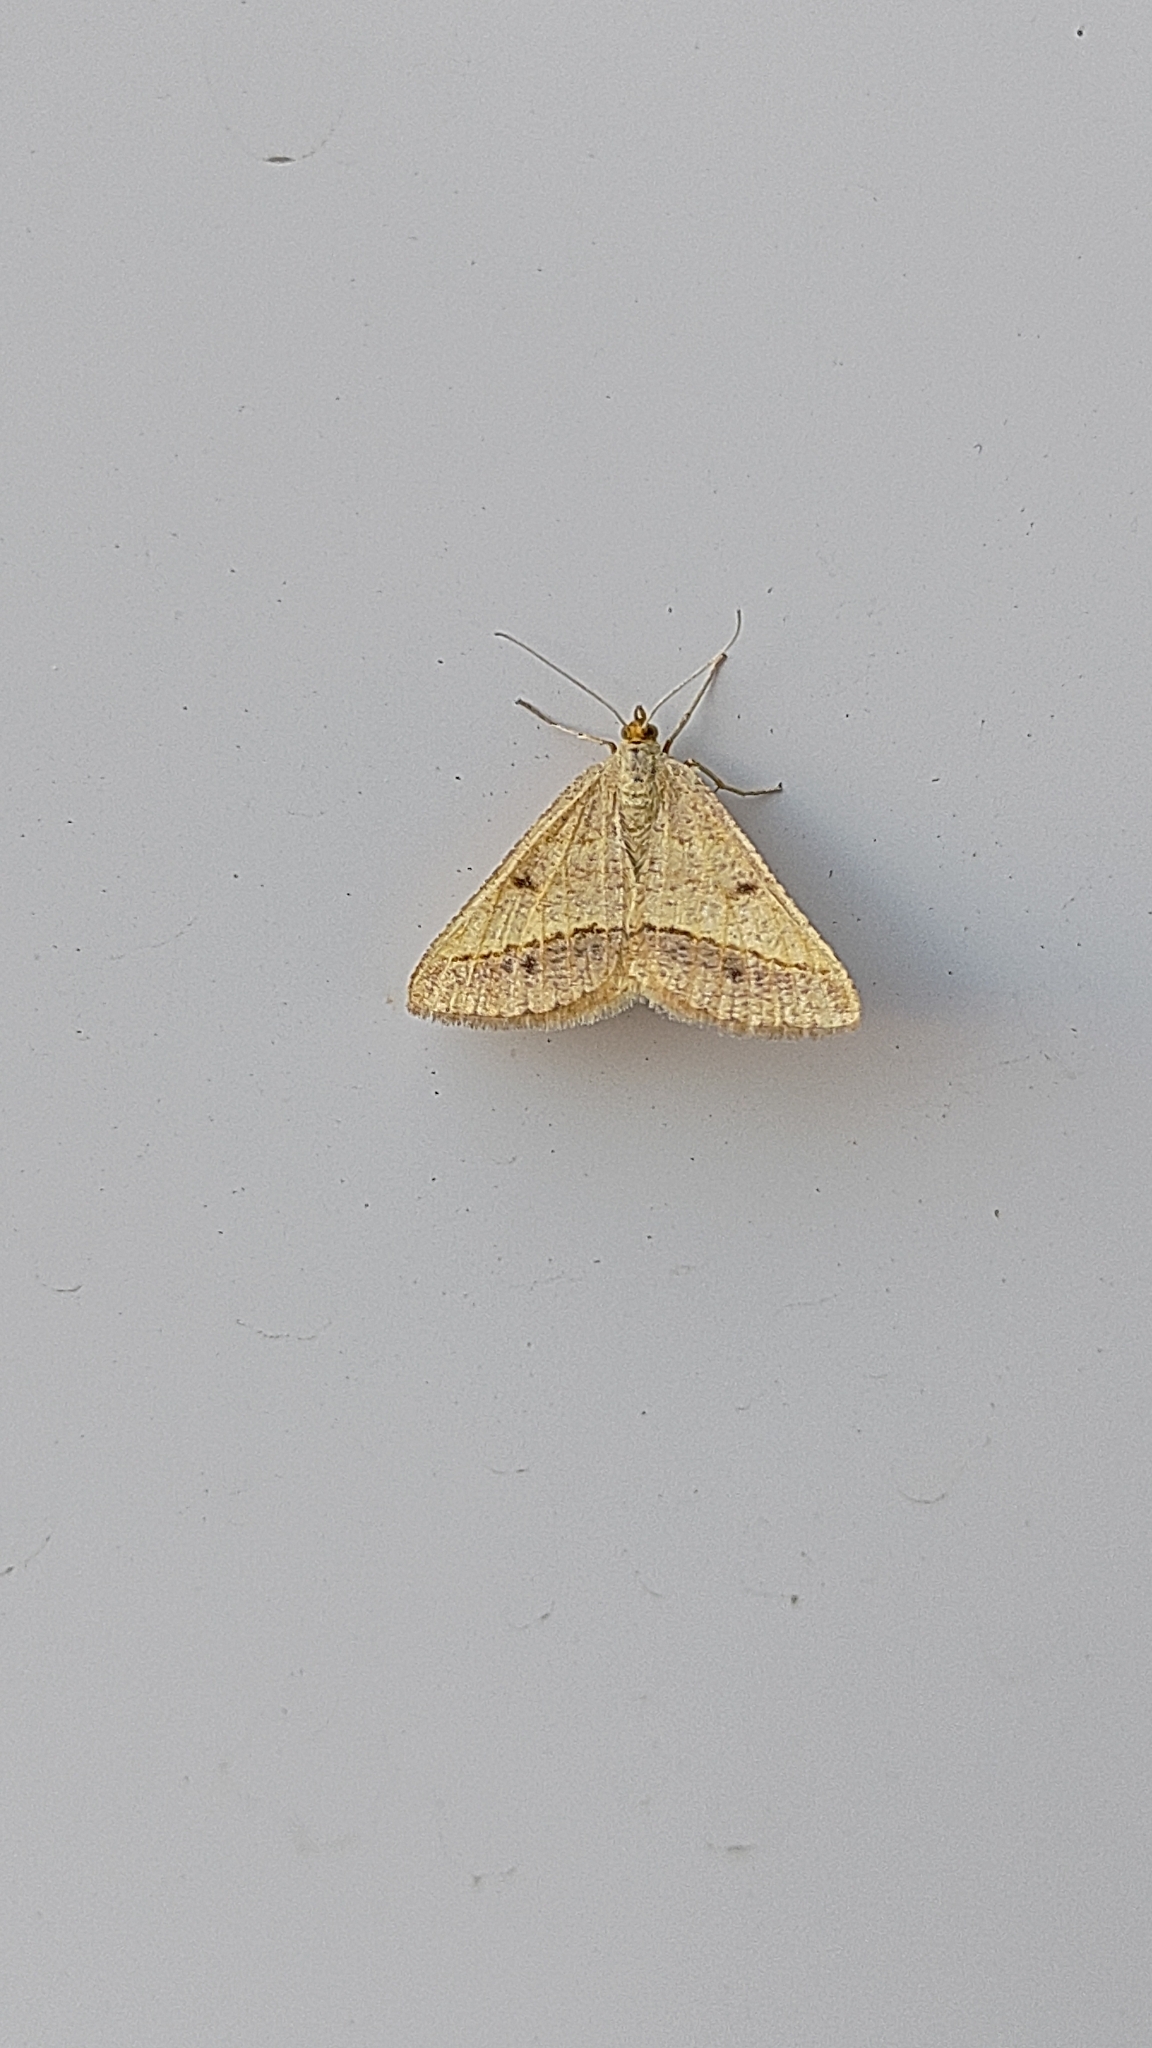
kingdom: Animalia
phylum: Arthropoda
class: Insecta
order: Lepidoptera
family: Geometridae
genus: Tephrina
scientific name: Tephrina arenacearia
